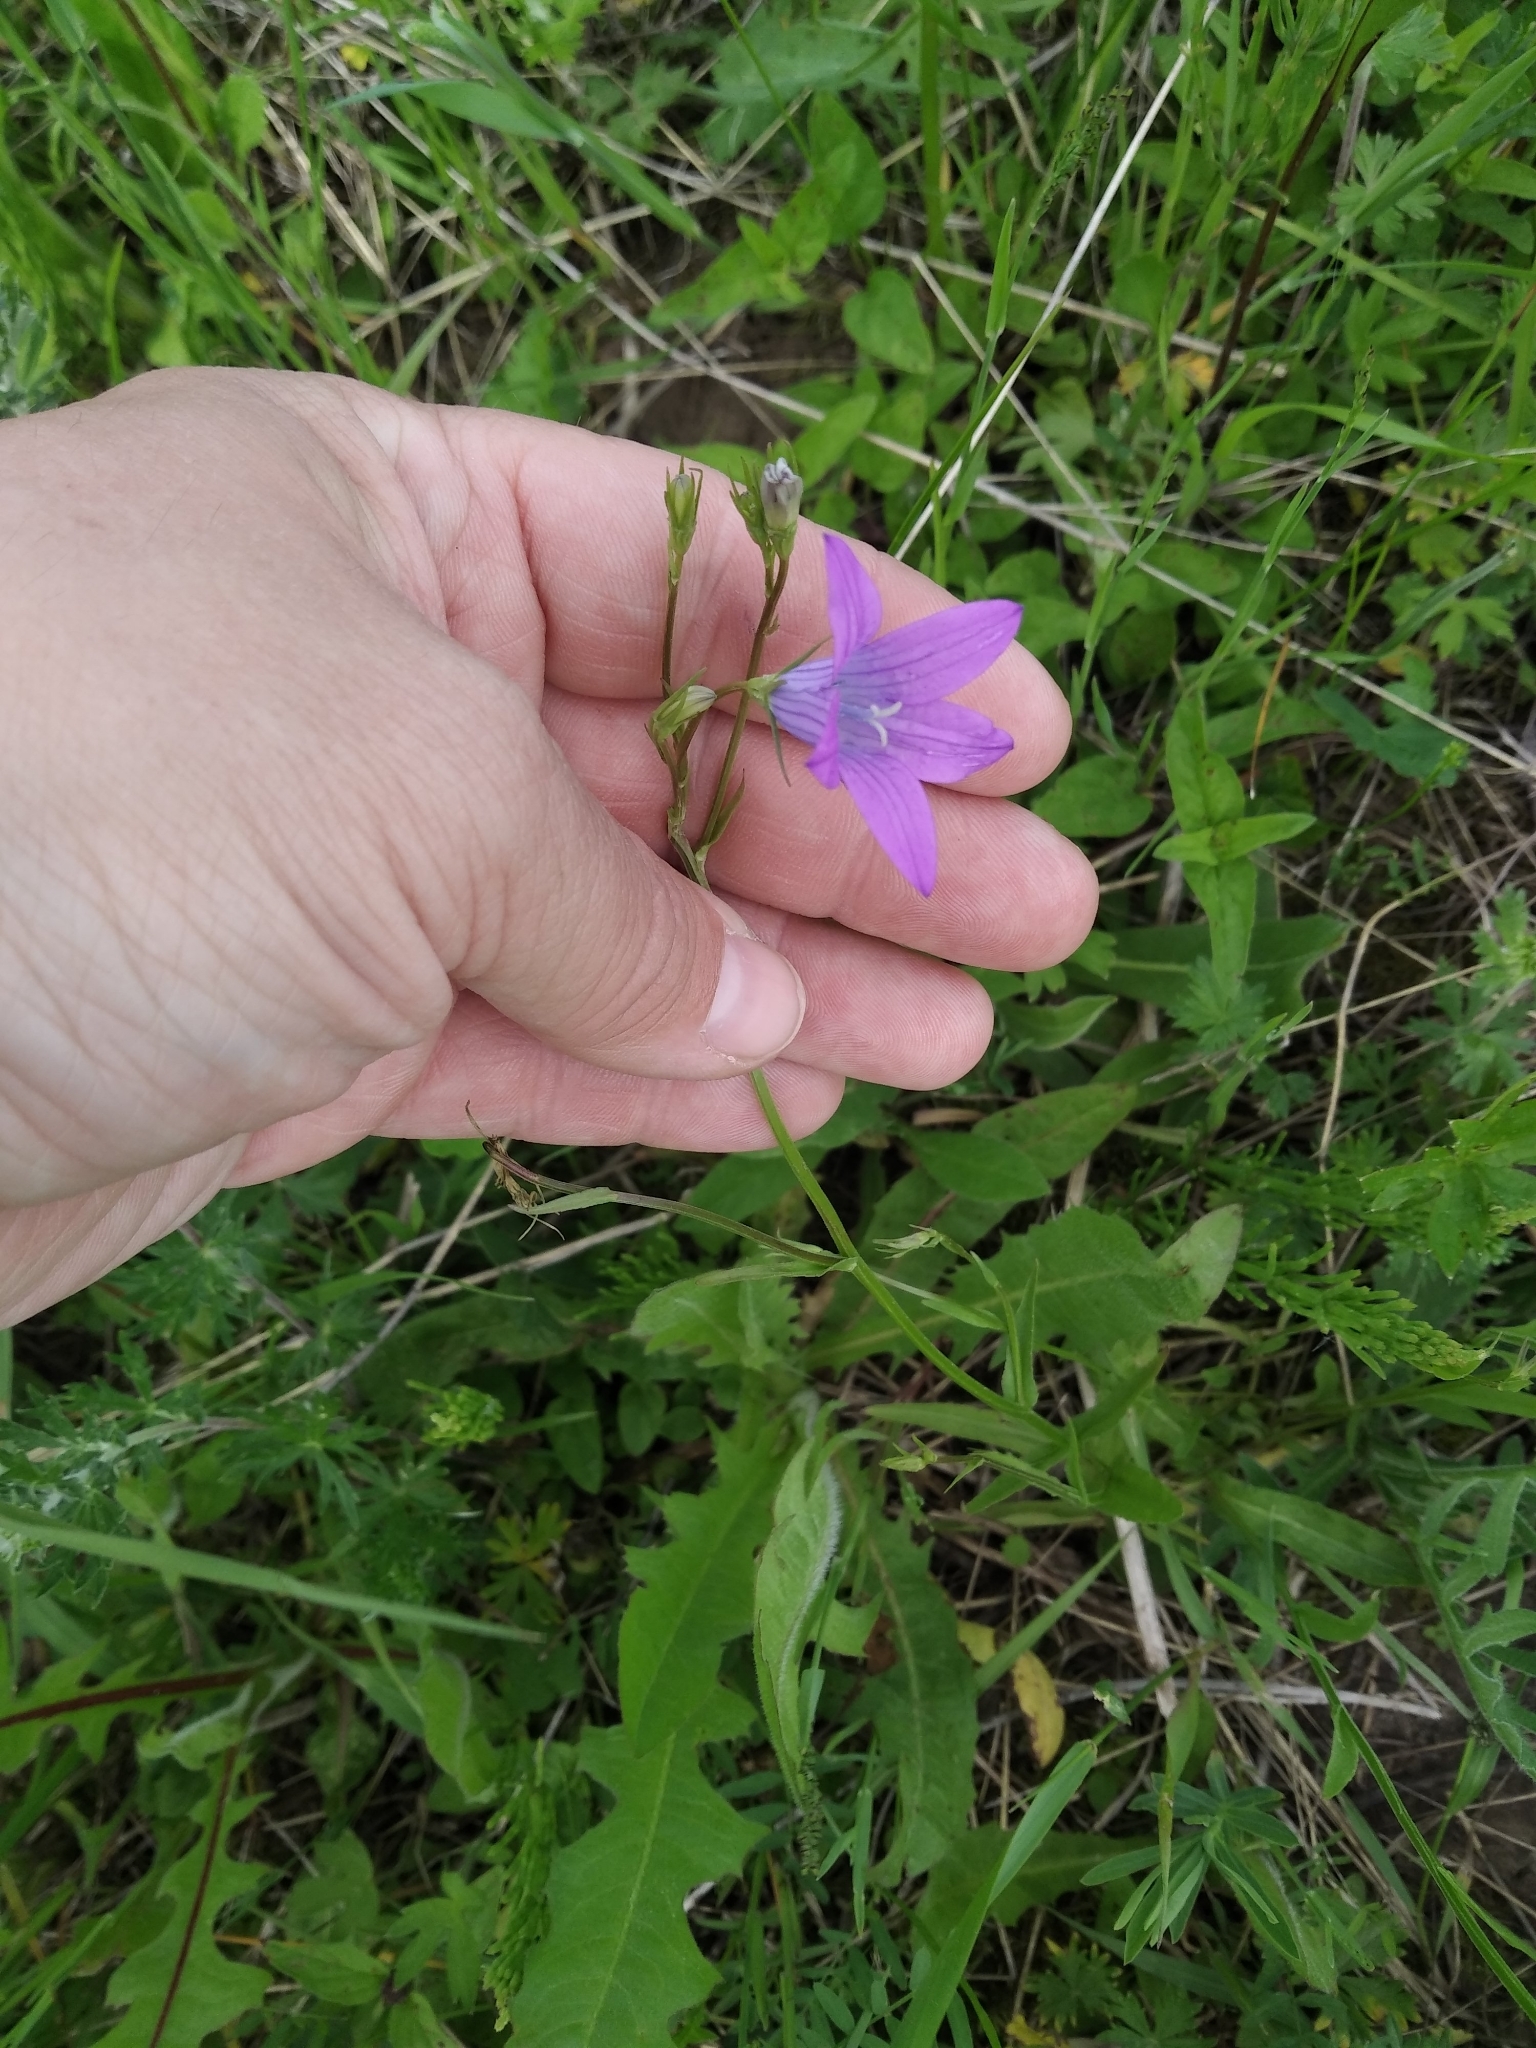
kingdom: Plantae
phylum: Tracheophyta
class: Magnoliopsida
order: Asterales
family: Campanulaceae
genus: Campanula
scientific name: Campanula patula
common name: Spreading bellflower
